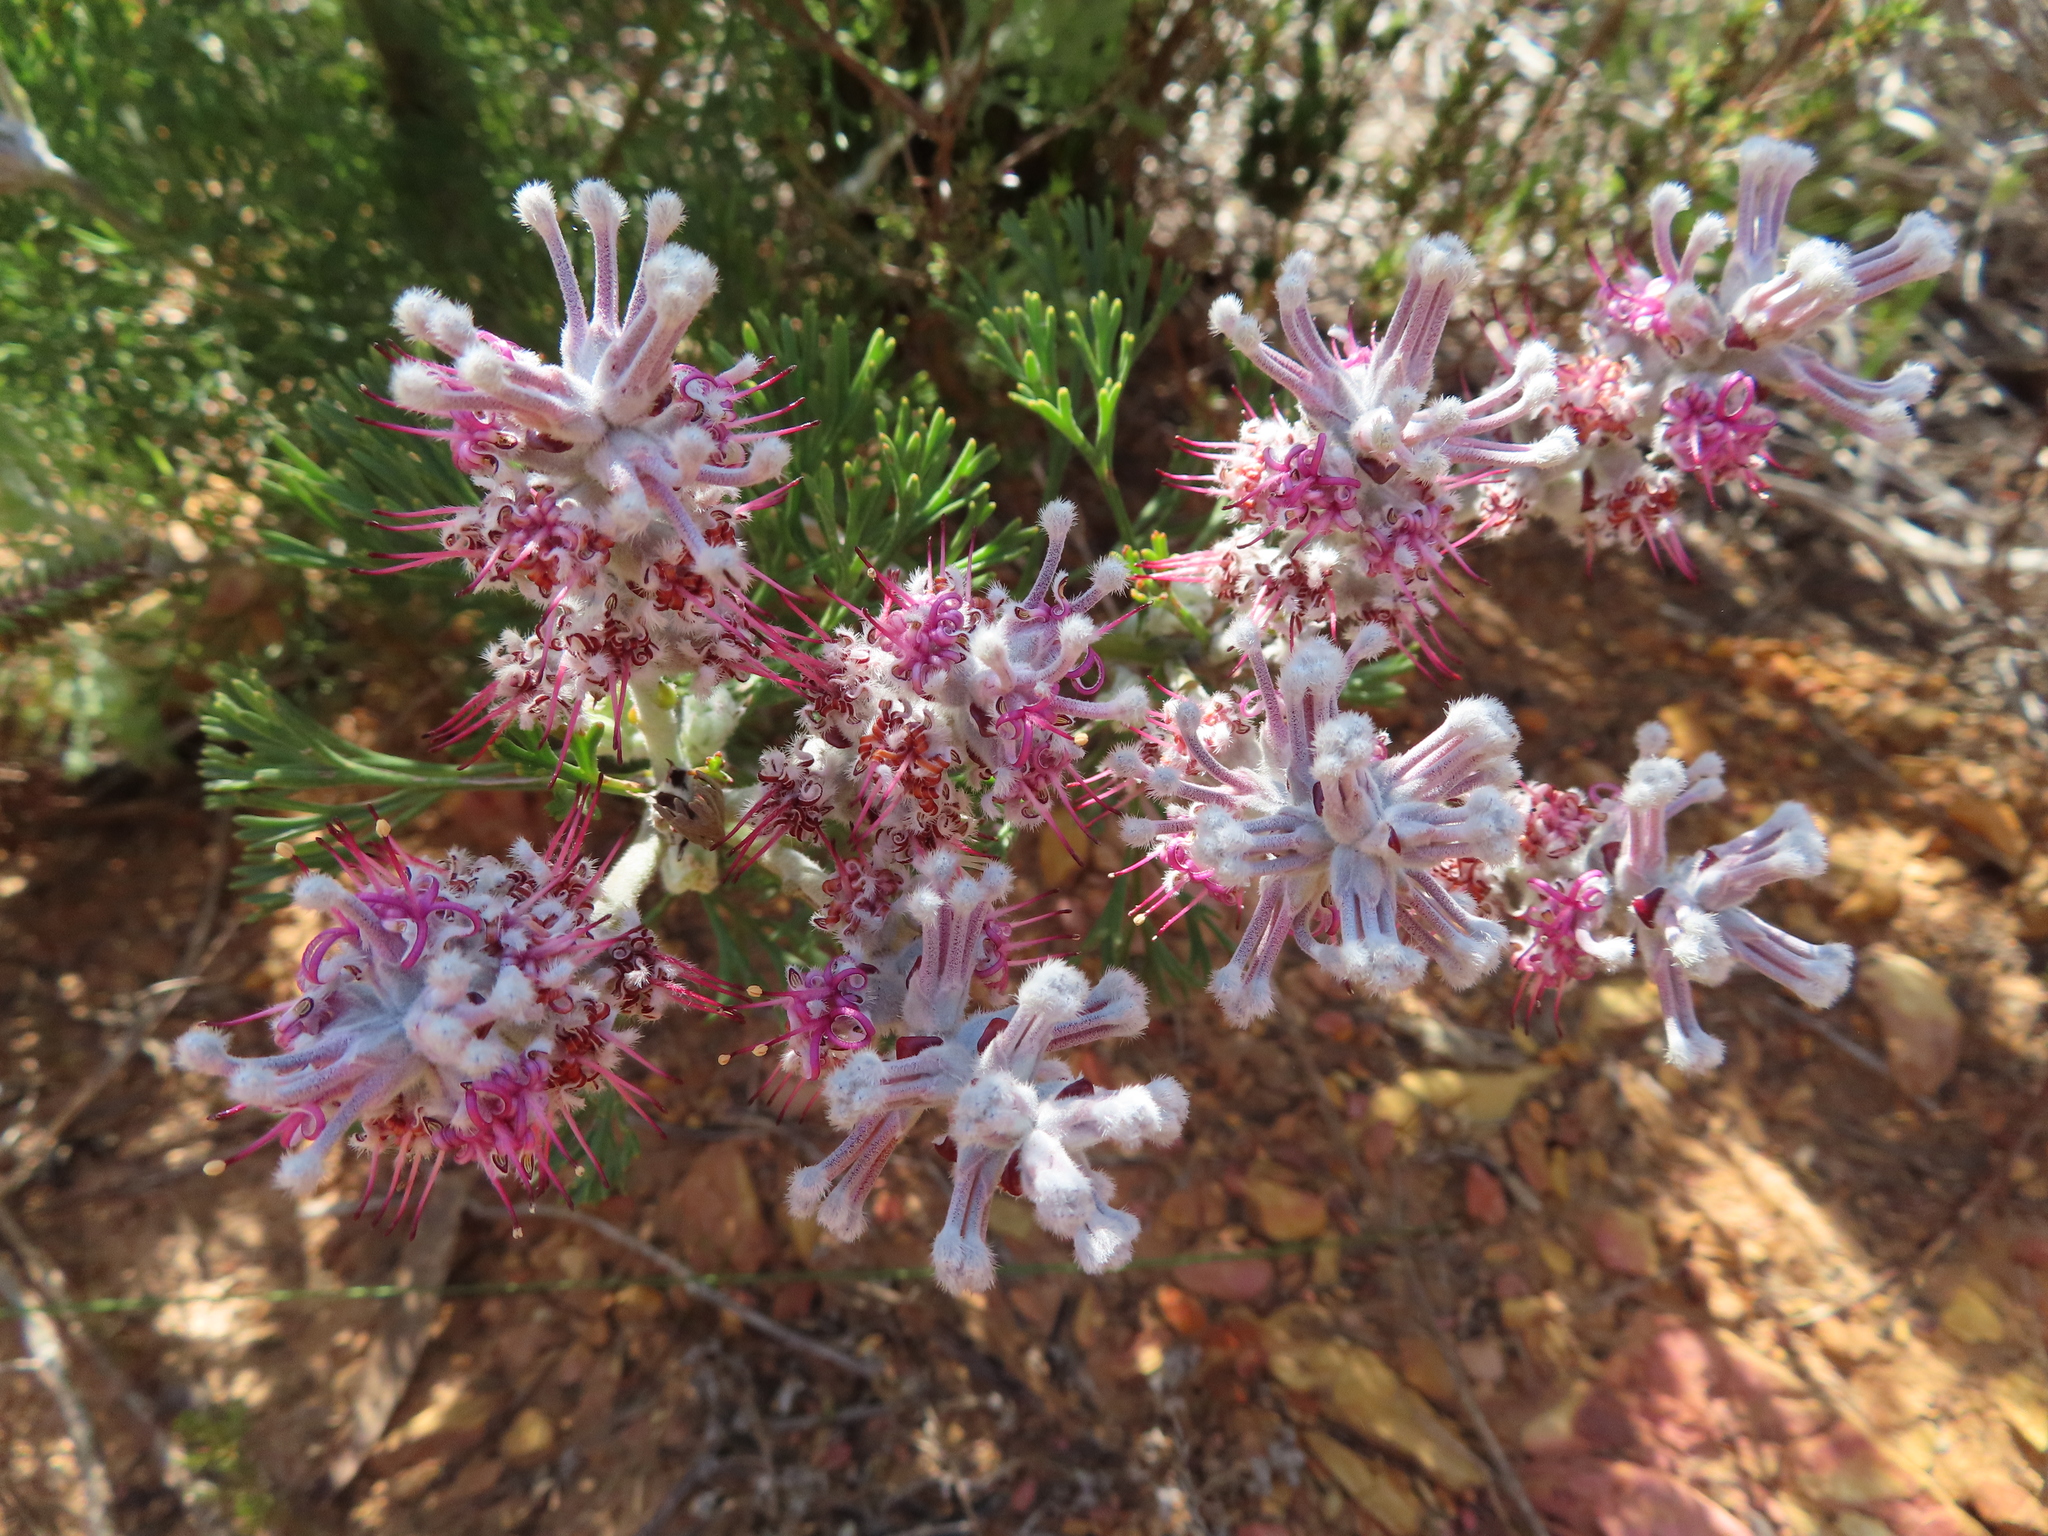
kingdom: Plantae
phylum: Tracheophyta
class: Magnoliopsida
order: Proteales
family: Proteaceae
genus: Paranomus
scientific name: Paranomus bolusii
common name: Overberg sceptre
